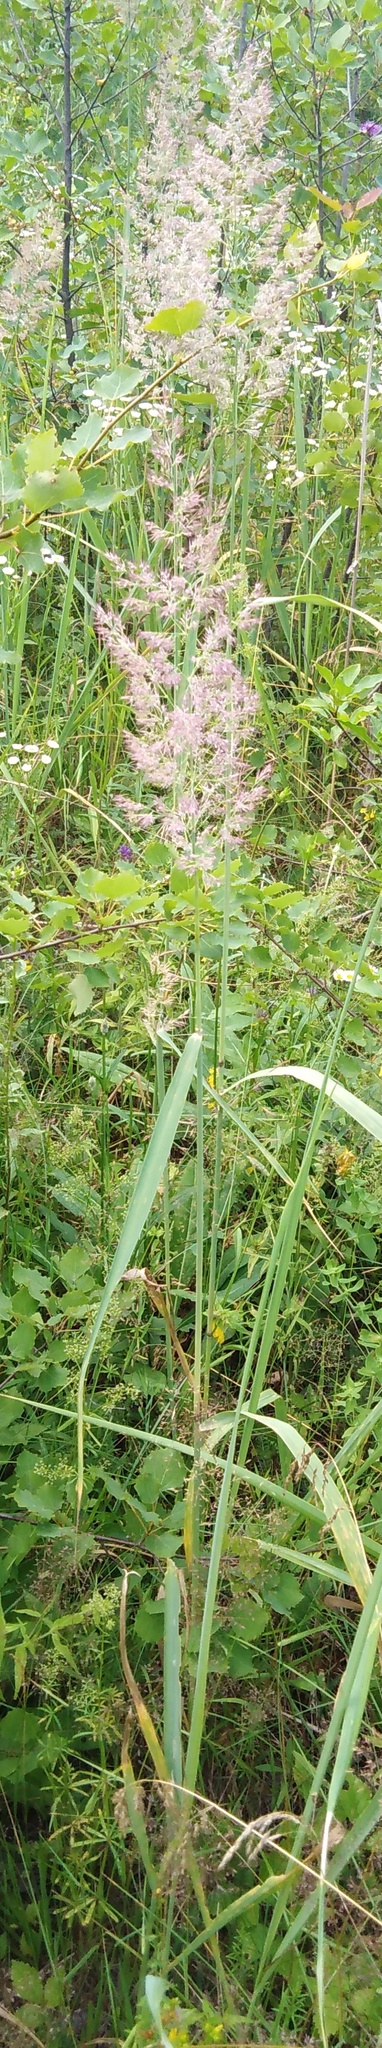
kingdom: Plantae
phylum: Tracheophyta
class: Liliopsida
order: Poales
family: Poaceae
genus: Calamagrostis
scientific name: Calamagrostis epigejos
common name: Wood small-reed
